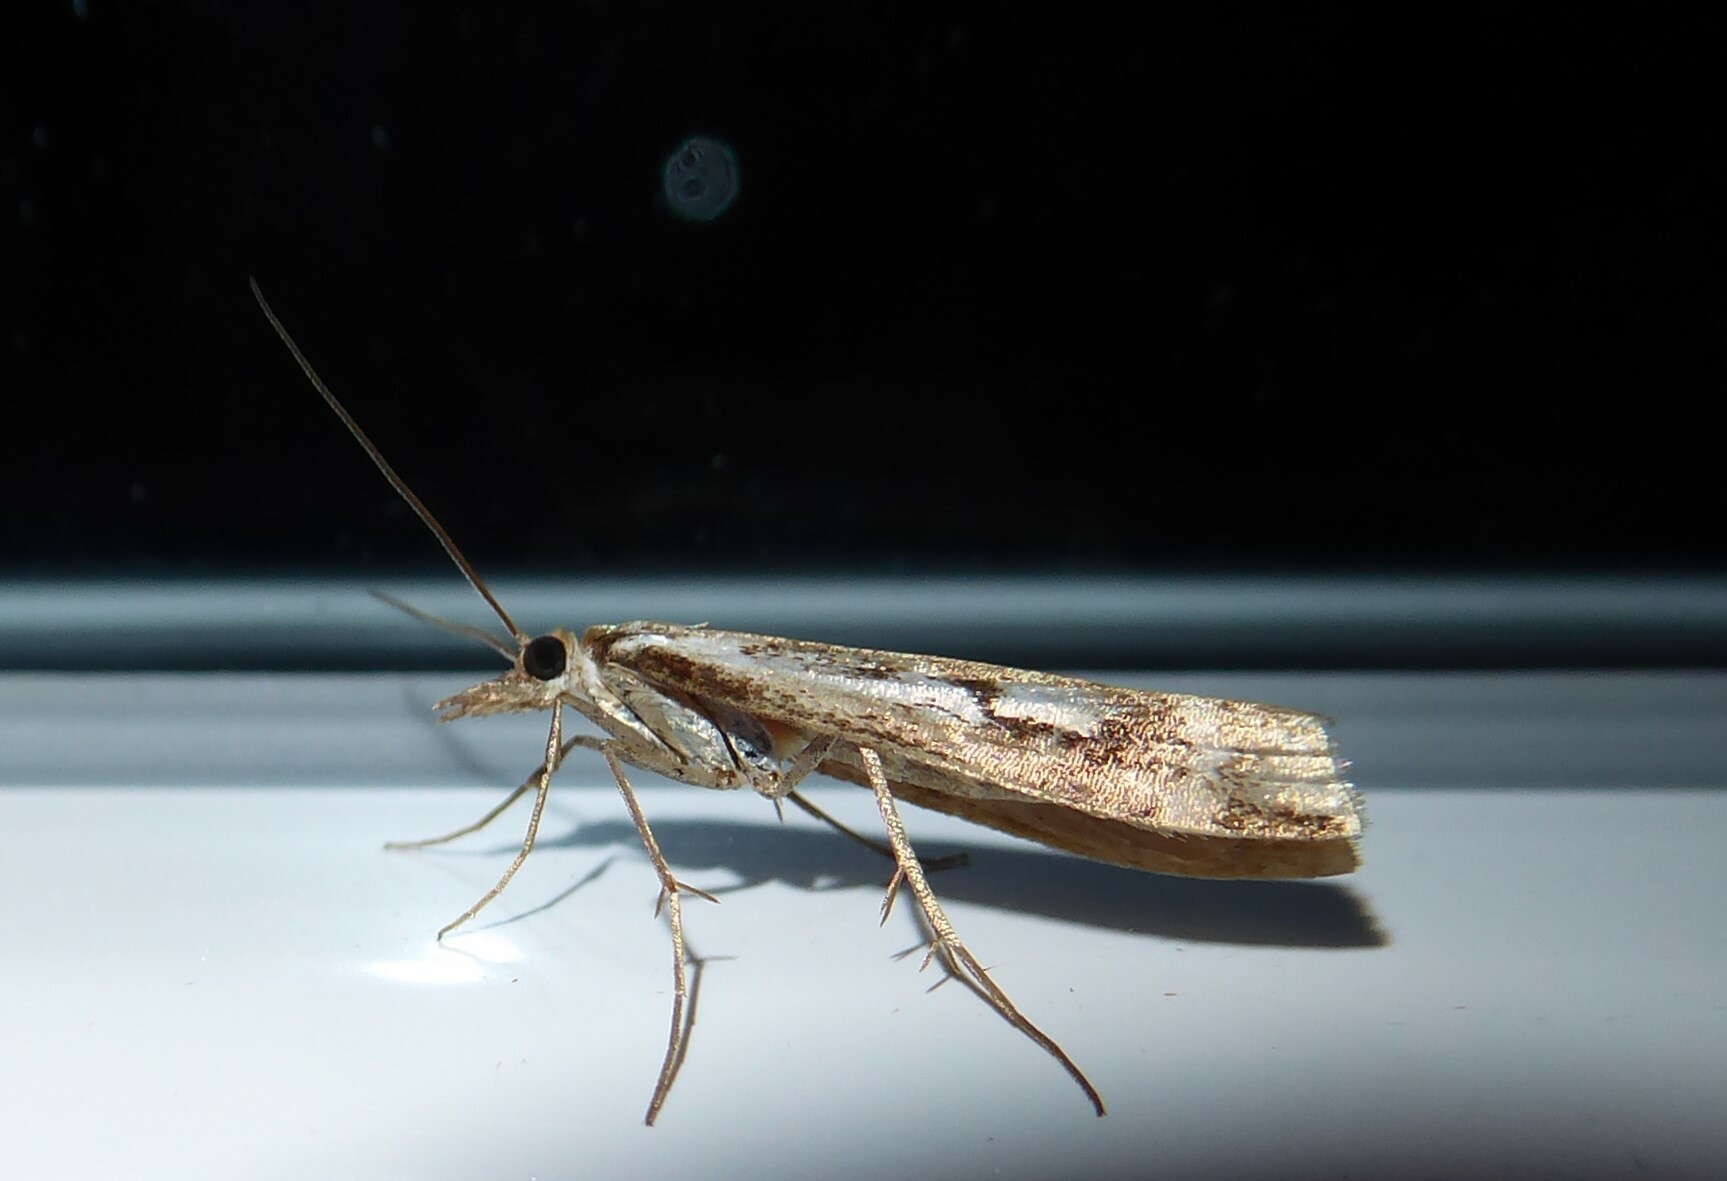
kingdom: Animalia
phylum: Arthropoda
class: Insecta
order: Lepidoptera
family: Crambidae
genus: Orocrambus
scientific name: Orocrambus vulgaris
